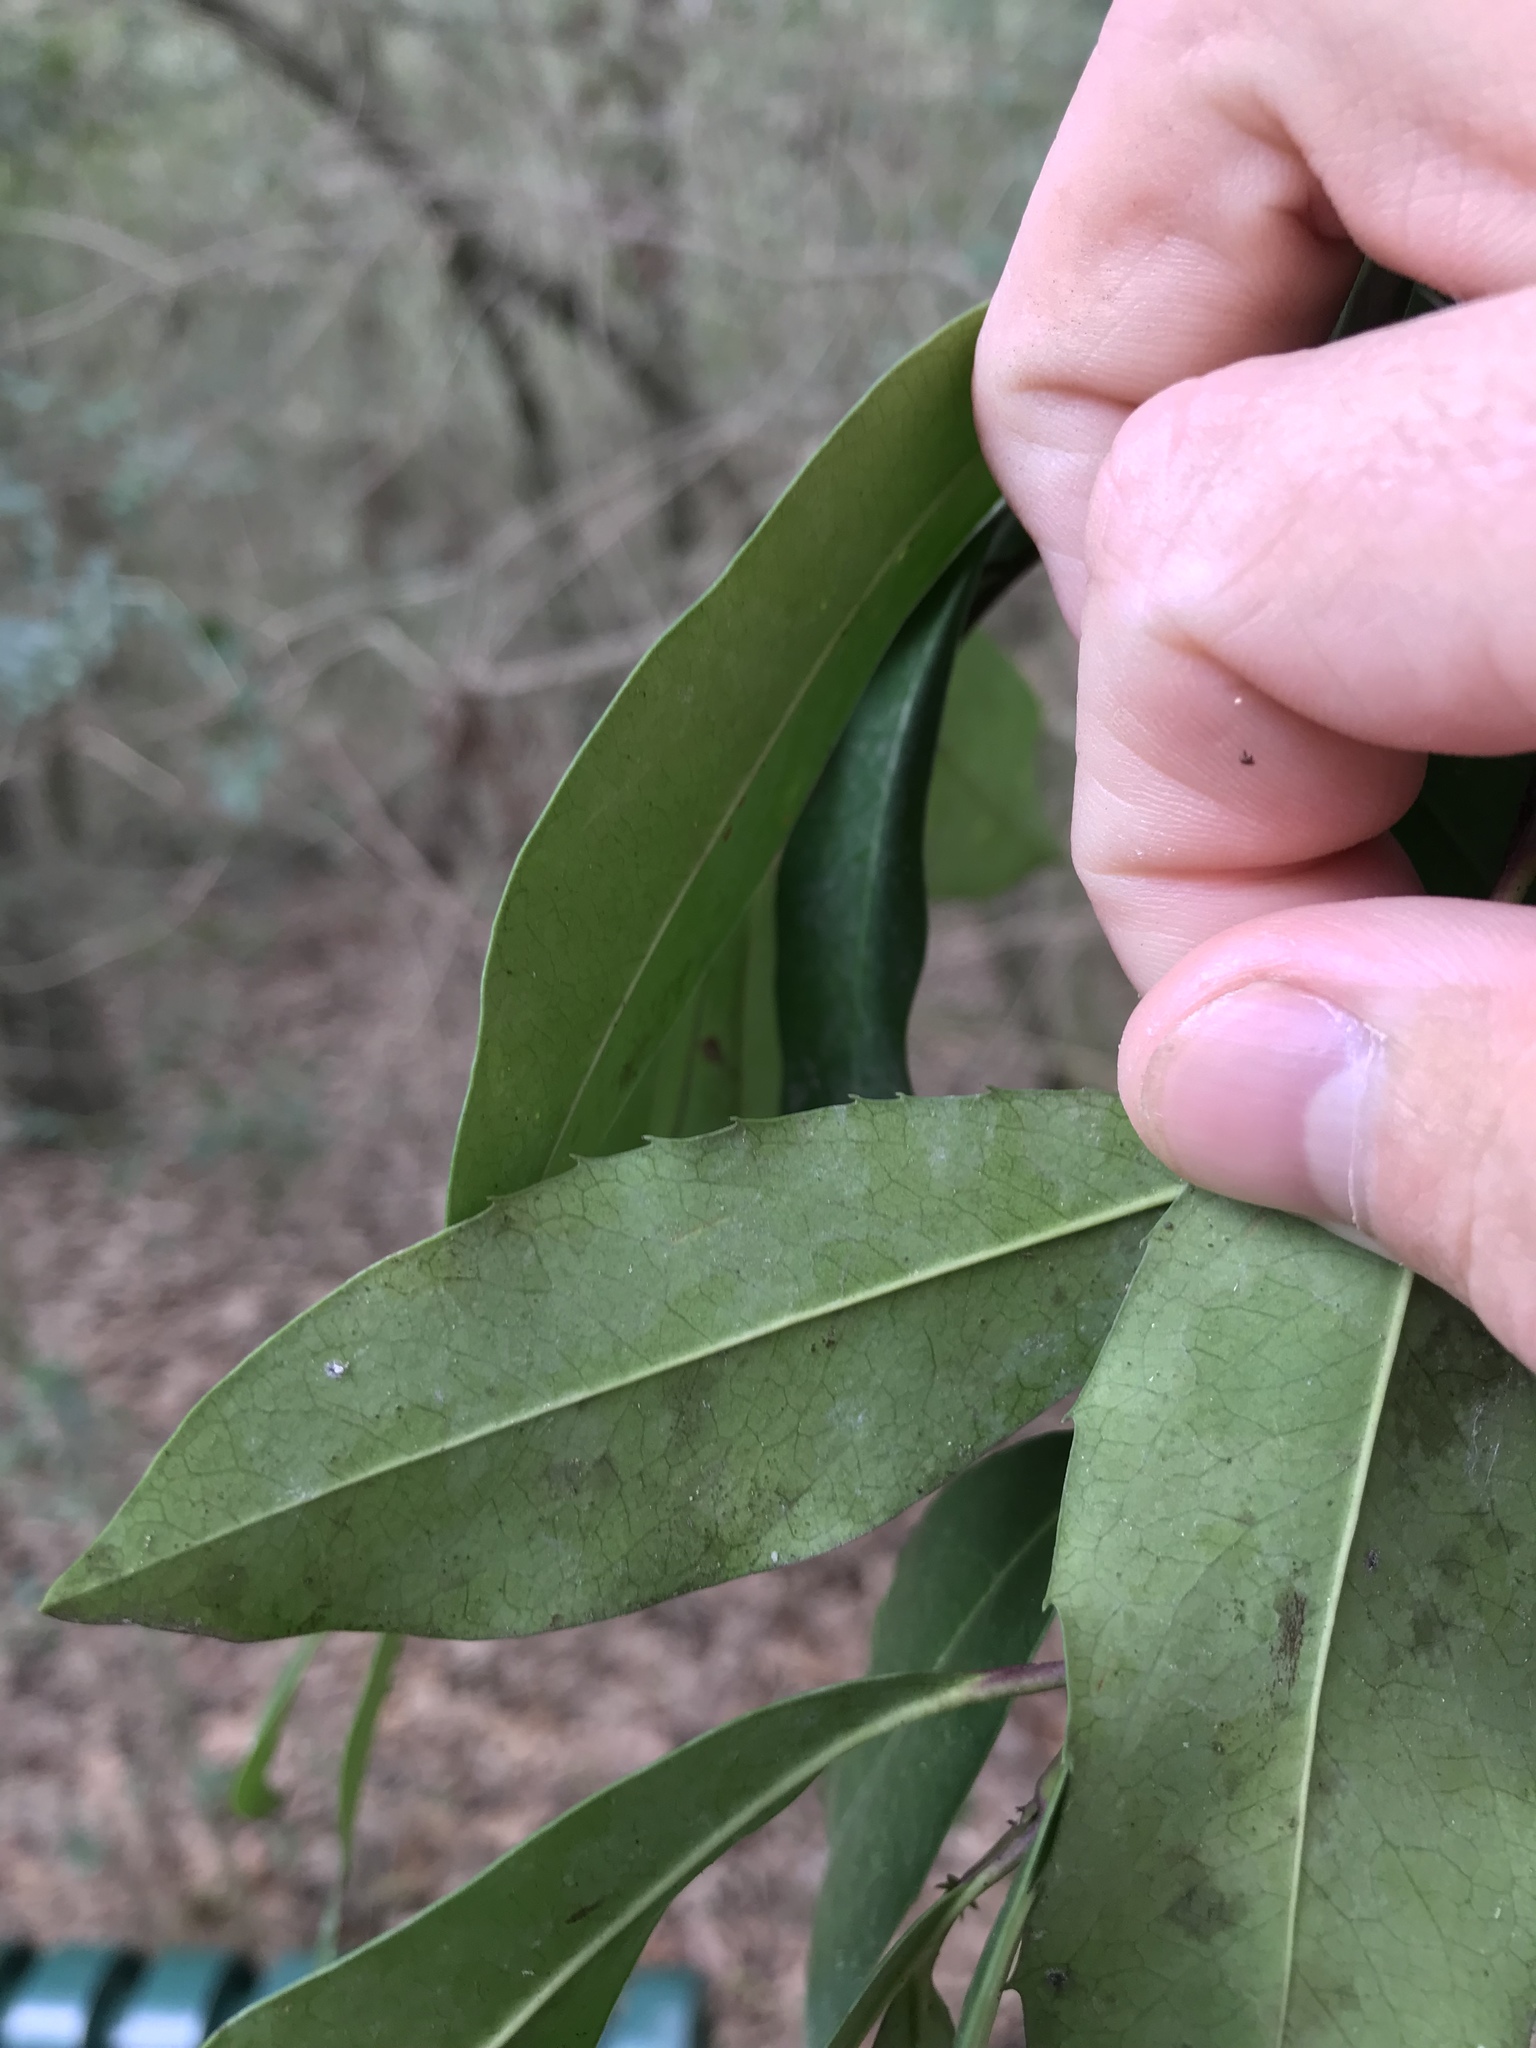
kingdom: Plantae
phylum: Tracheophyta
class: Magnoliopsida
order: Rosales
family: Rosaceae
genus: Prunus
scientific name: Prunus caroliniana
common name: Carolina laurel cherry
